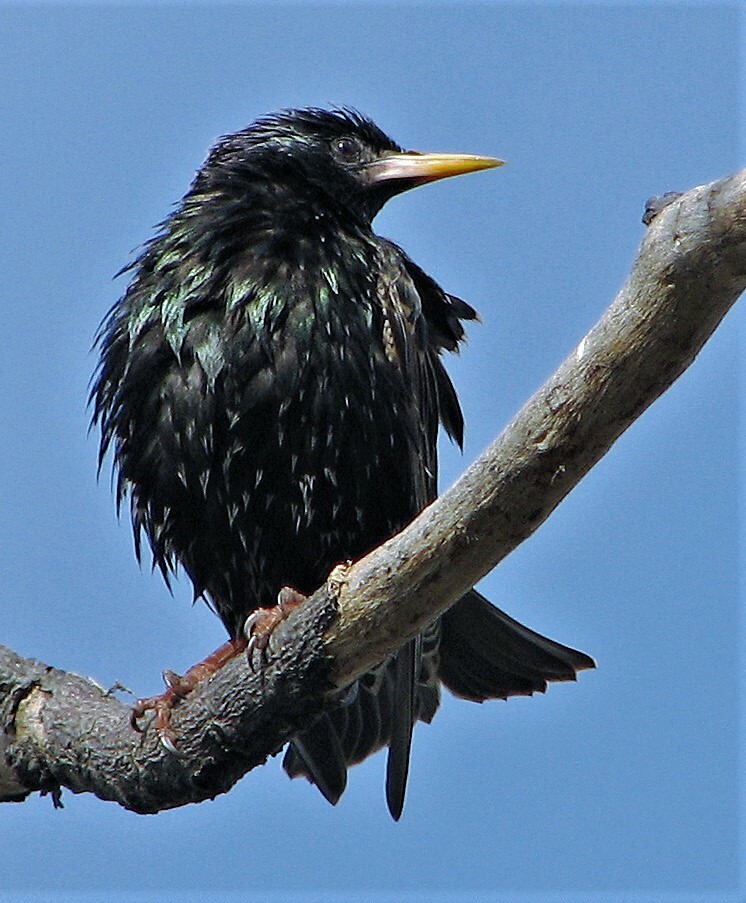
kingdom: Animalia
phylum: Chordata
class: Aves
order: Passeriformes
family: Sturnidae
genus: Sturnus
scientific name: Sturnus vulgaris
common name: Common starling
